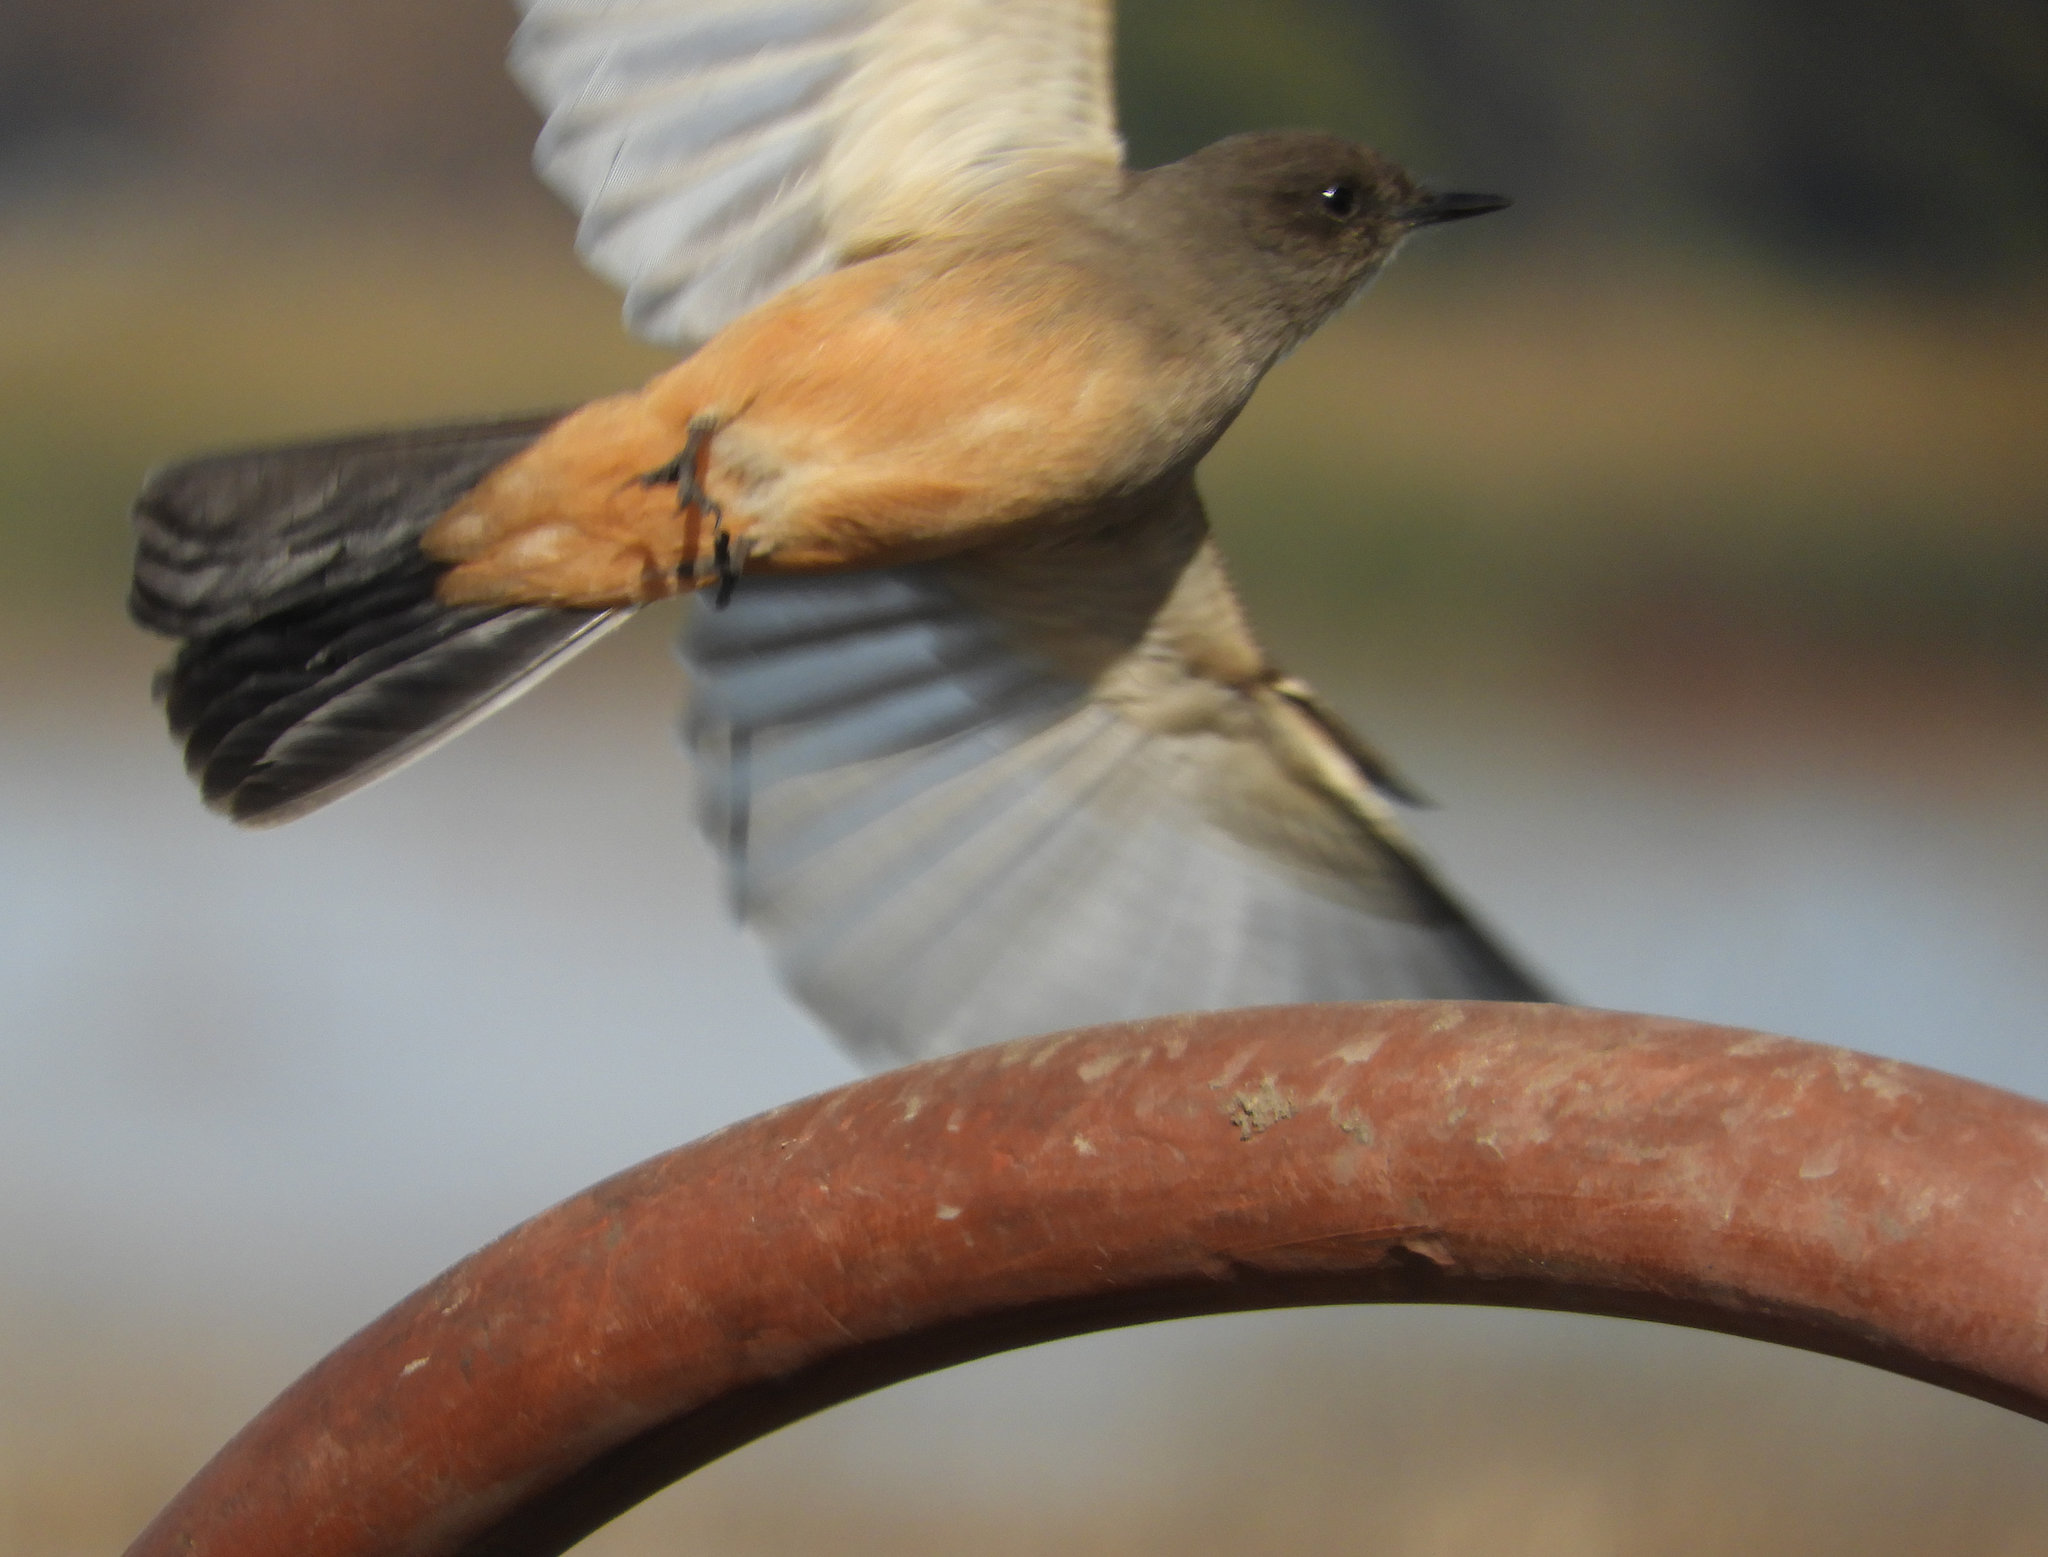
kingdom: Animalia
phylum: Chordata
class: Aves
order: Passeriformes
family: Tyrannidae
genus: Sayornis
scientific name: Sayornis saya
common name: Say's phoebe
